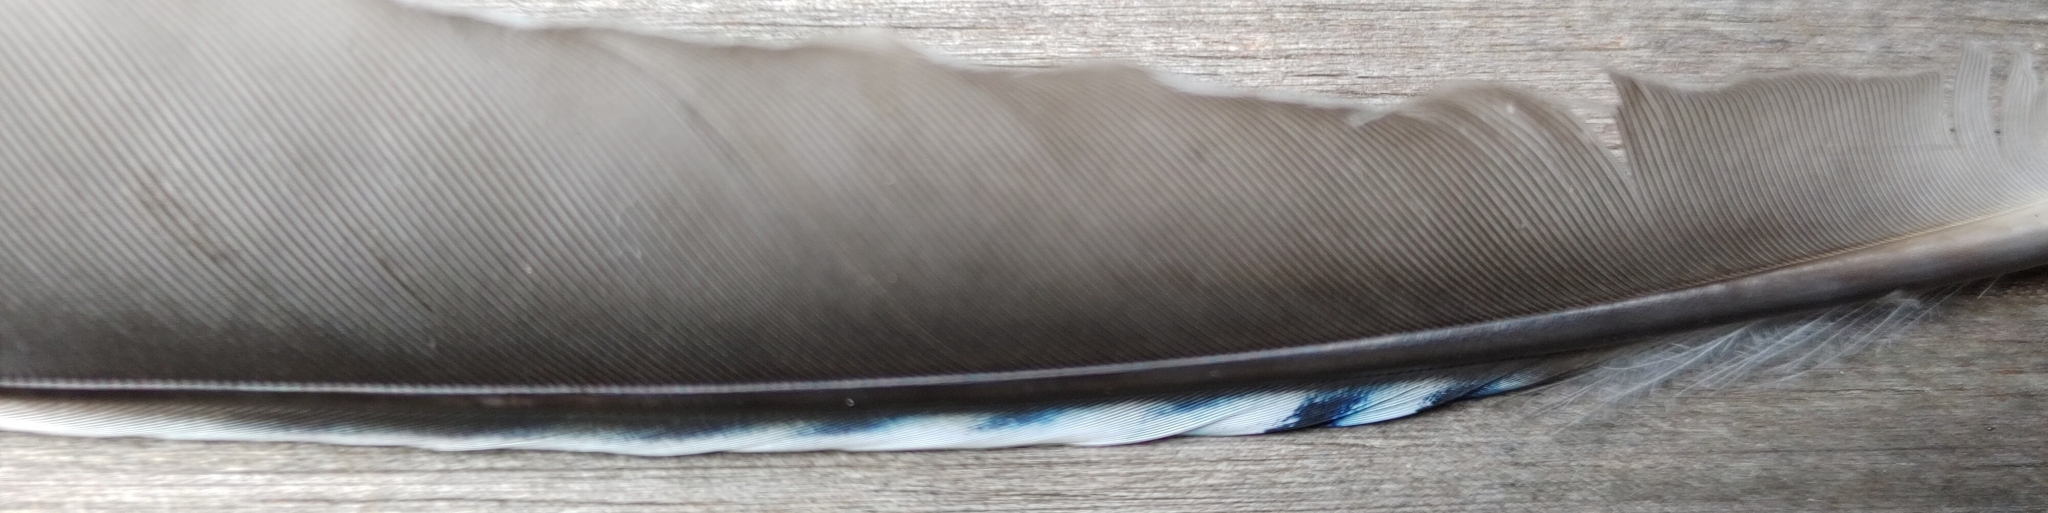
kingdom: Animalia
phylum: Chordata
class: Aves
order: Passeriformes
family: Corvidae
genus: Garrulus
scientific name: Garrulus glandarius
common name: Eurasian jay
